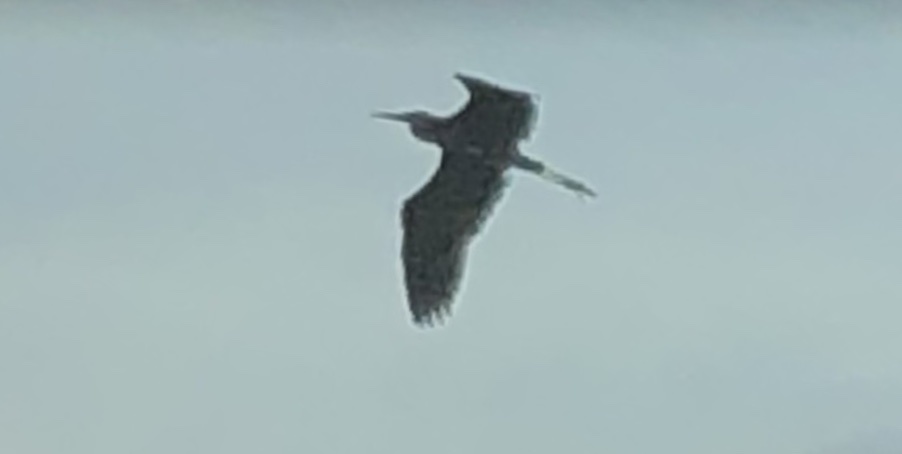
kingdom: Animalia
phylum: Chordata
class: Aves
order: Pelecaniformes
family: Ardeidae
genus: Egretta
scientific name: Egretta caerulea
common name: Little blue heron
